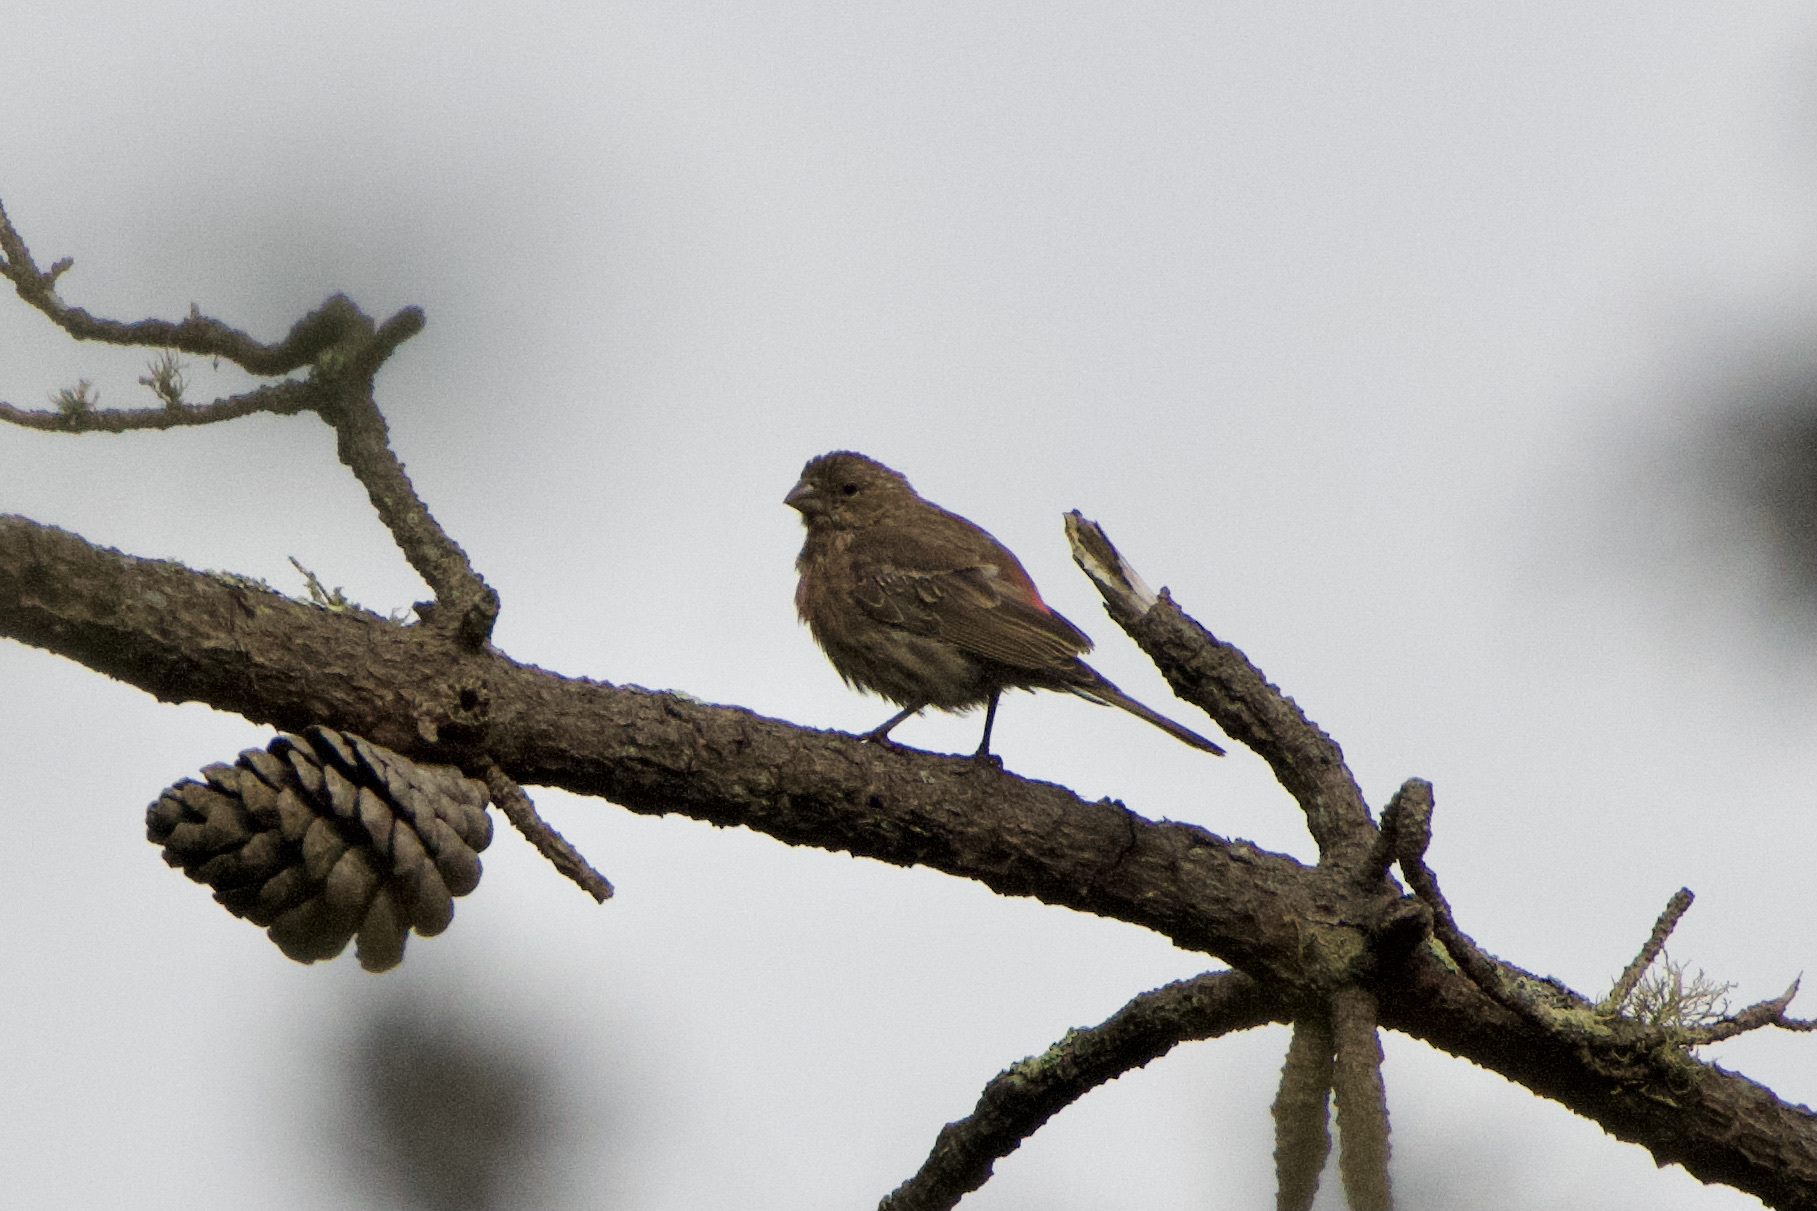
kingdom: Animalia
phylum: Chordata
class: Aves
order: Passeriformes
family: Fringillidae
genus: Haemorhous
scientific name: Haemorhous mexicanus
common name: House finch
